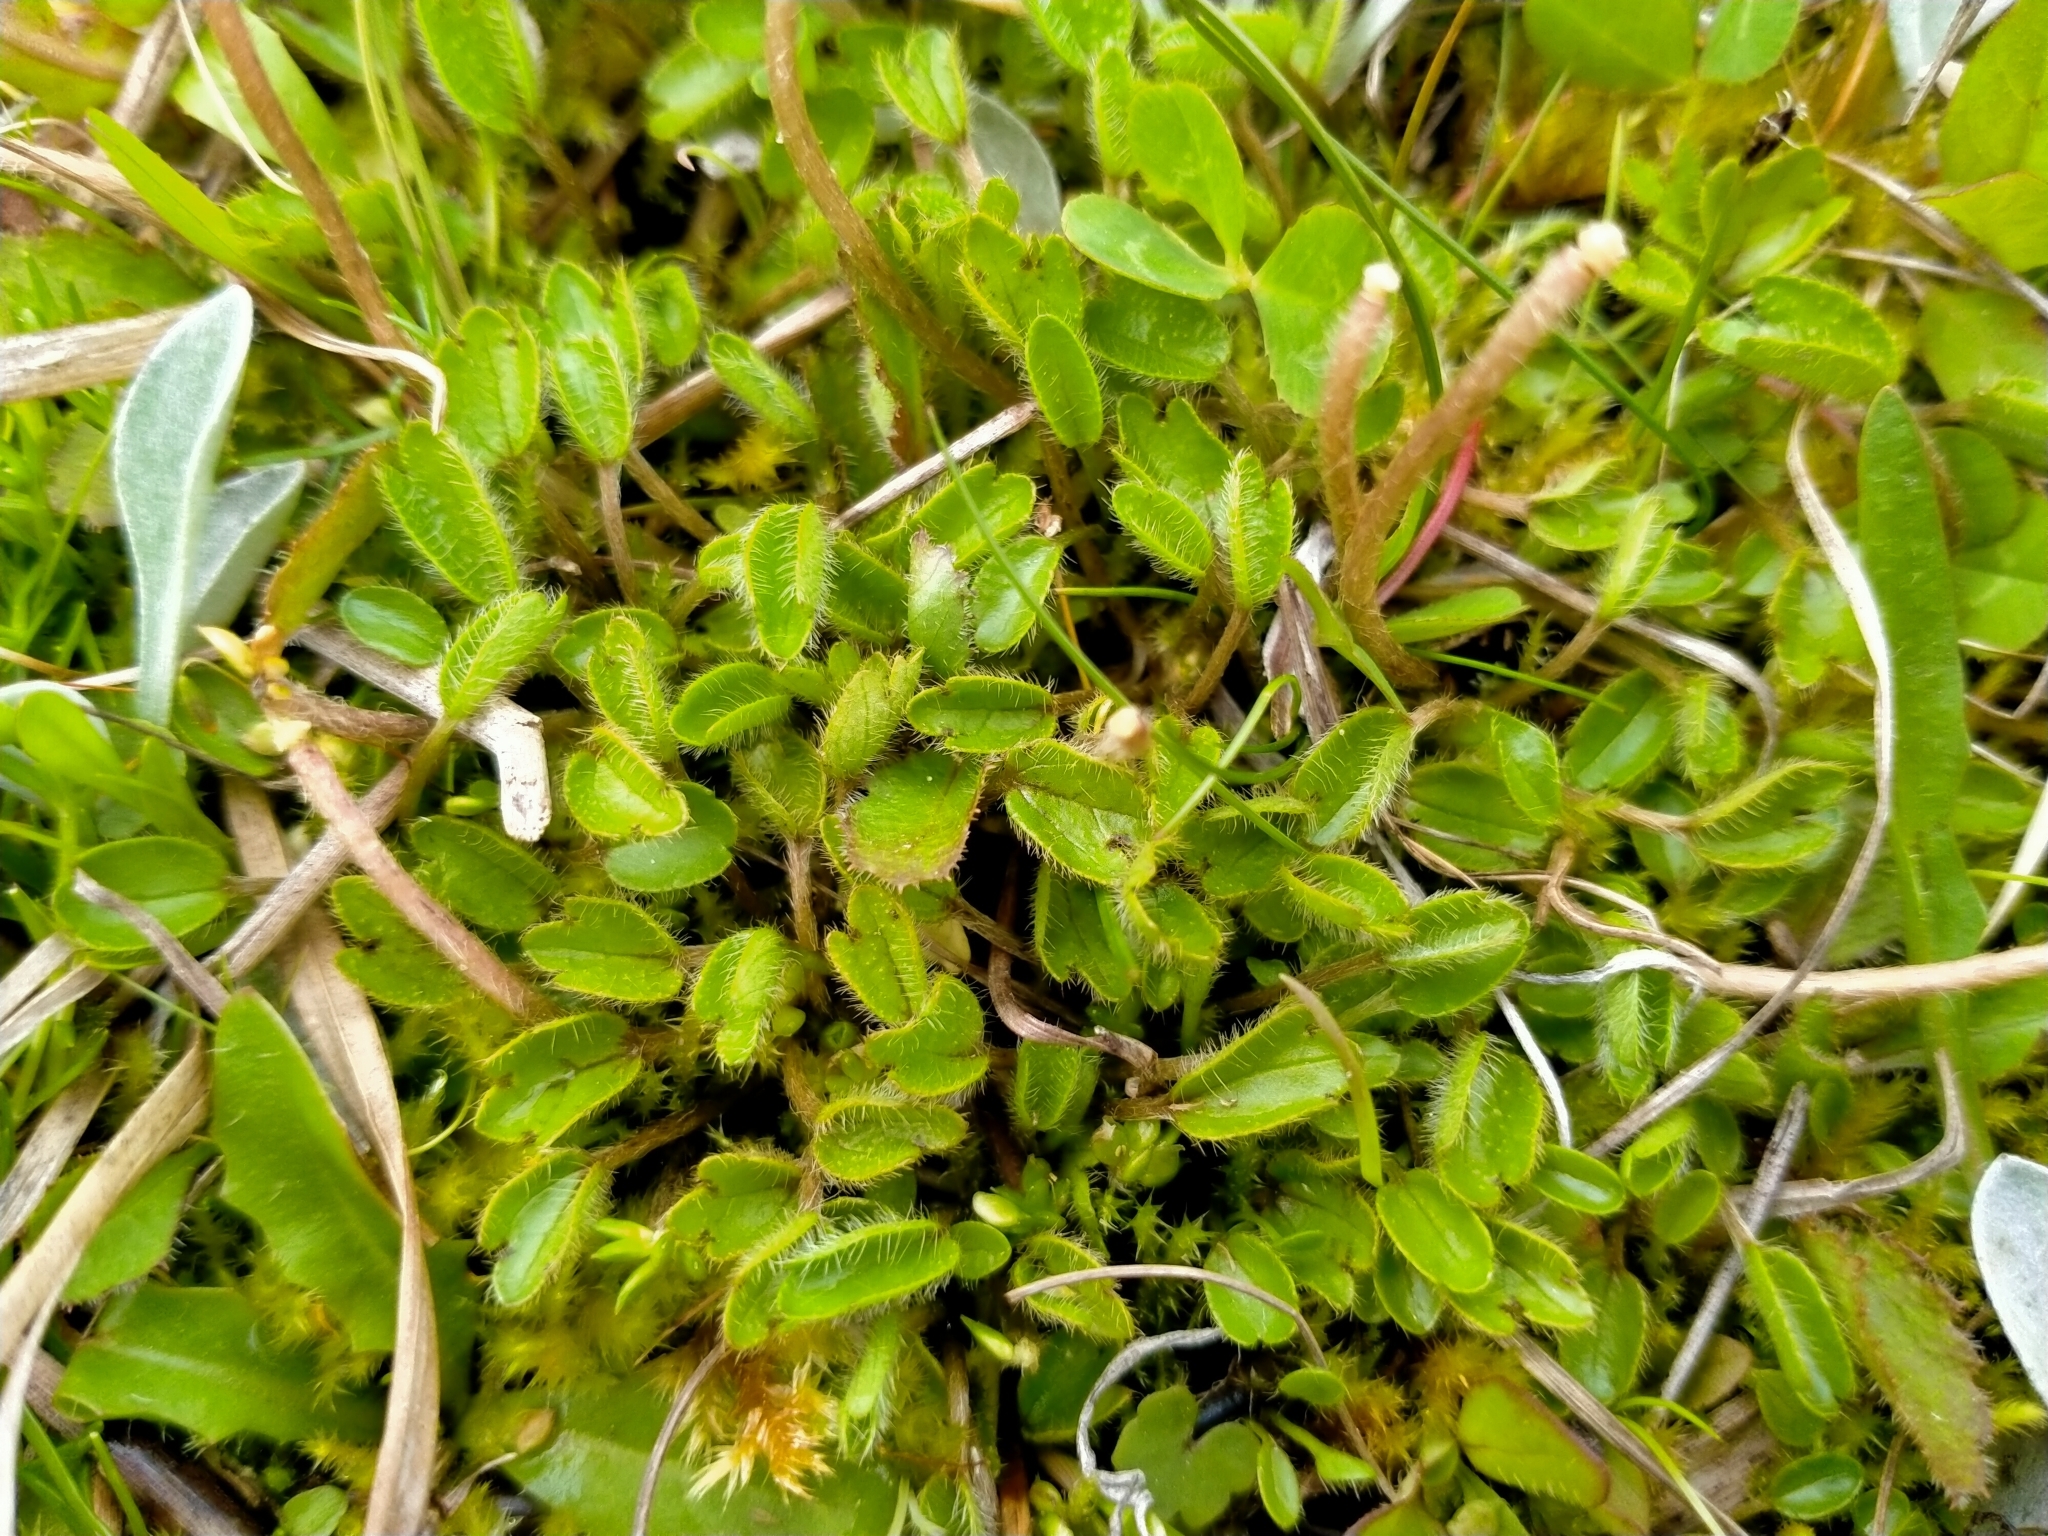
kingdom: Plantae
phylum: Tracheophyta
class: Magnoliopsida
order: Ranunculales
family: Ranunculaceae
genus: Ranunculus
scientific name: Ranunculus maculatus
